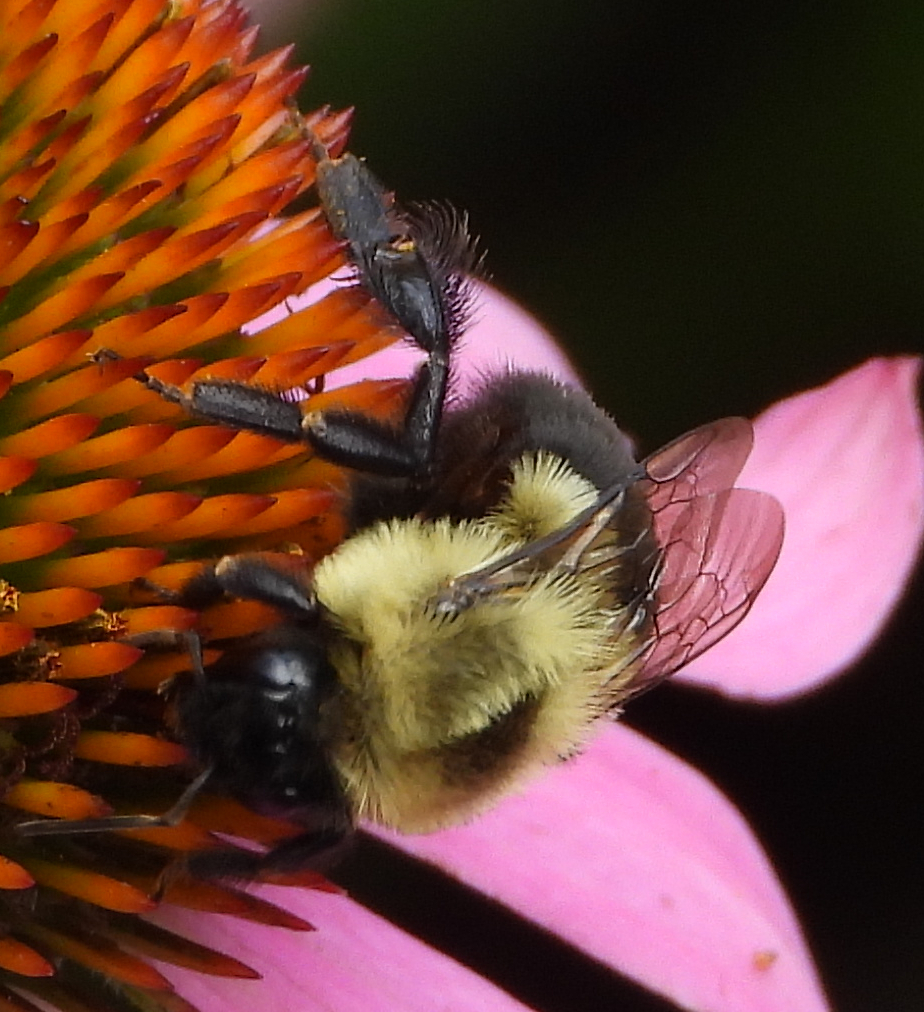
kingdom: Animalia
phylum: Arthropoda
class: Insecta
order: Hymenoptera
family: Apidae
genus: Bombus
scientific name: Bombus impatiens
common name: Common eastern bumble bee
